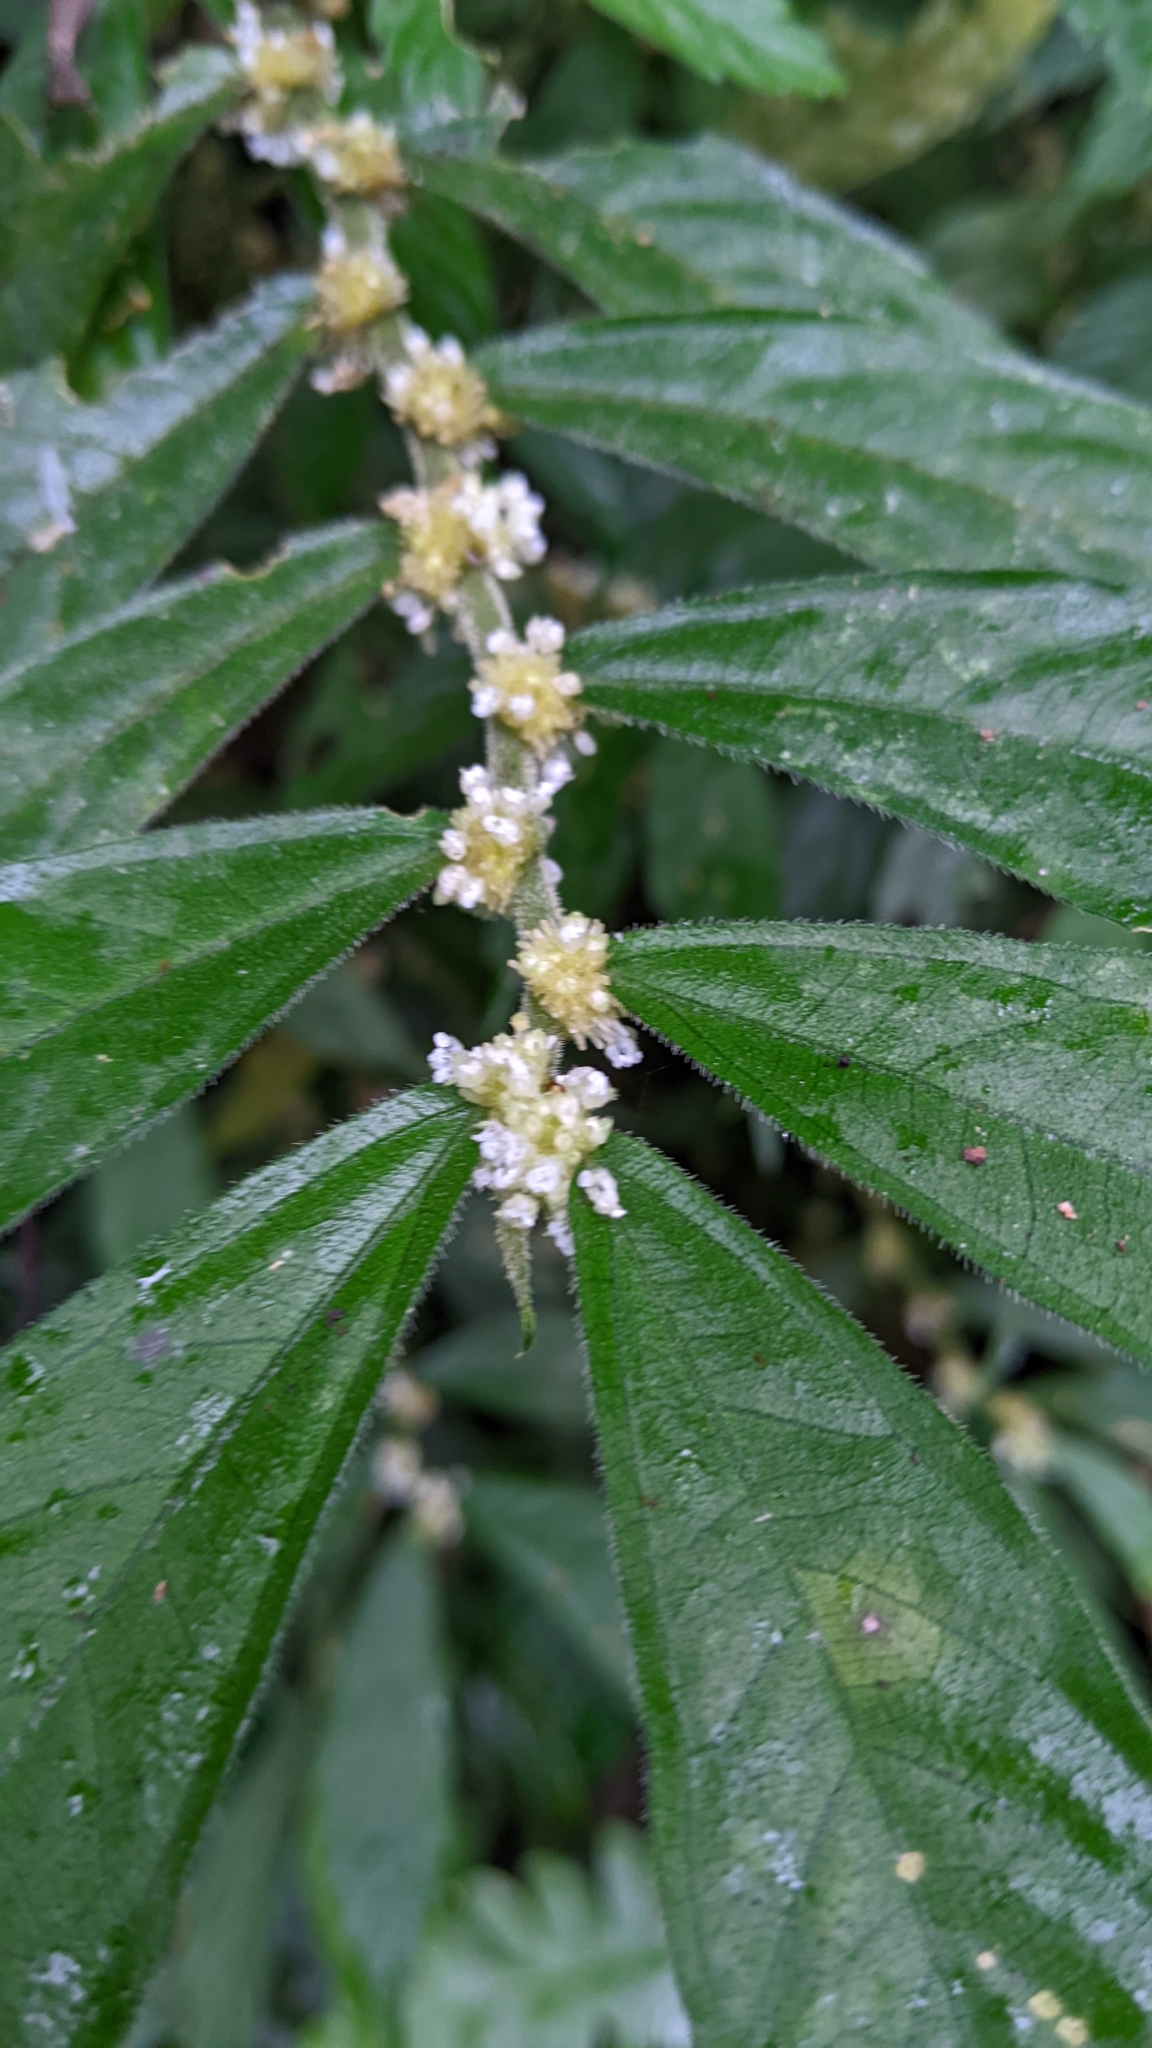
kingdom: Plantae
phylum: Tracheophyta
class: Magnoliopsida
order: Rosales
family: Urticaceae
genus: Elatostema
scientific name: Elatostema lineolatum
